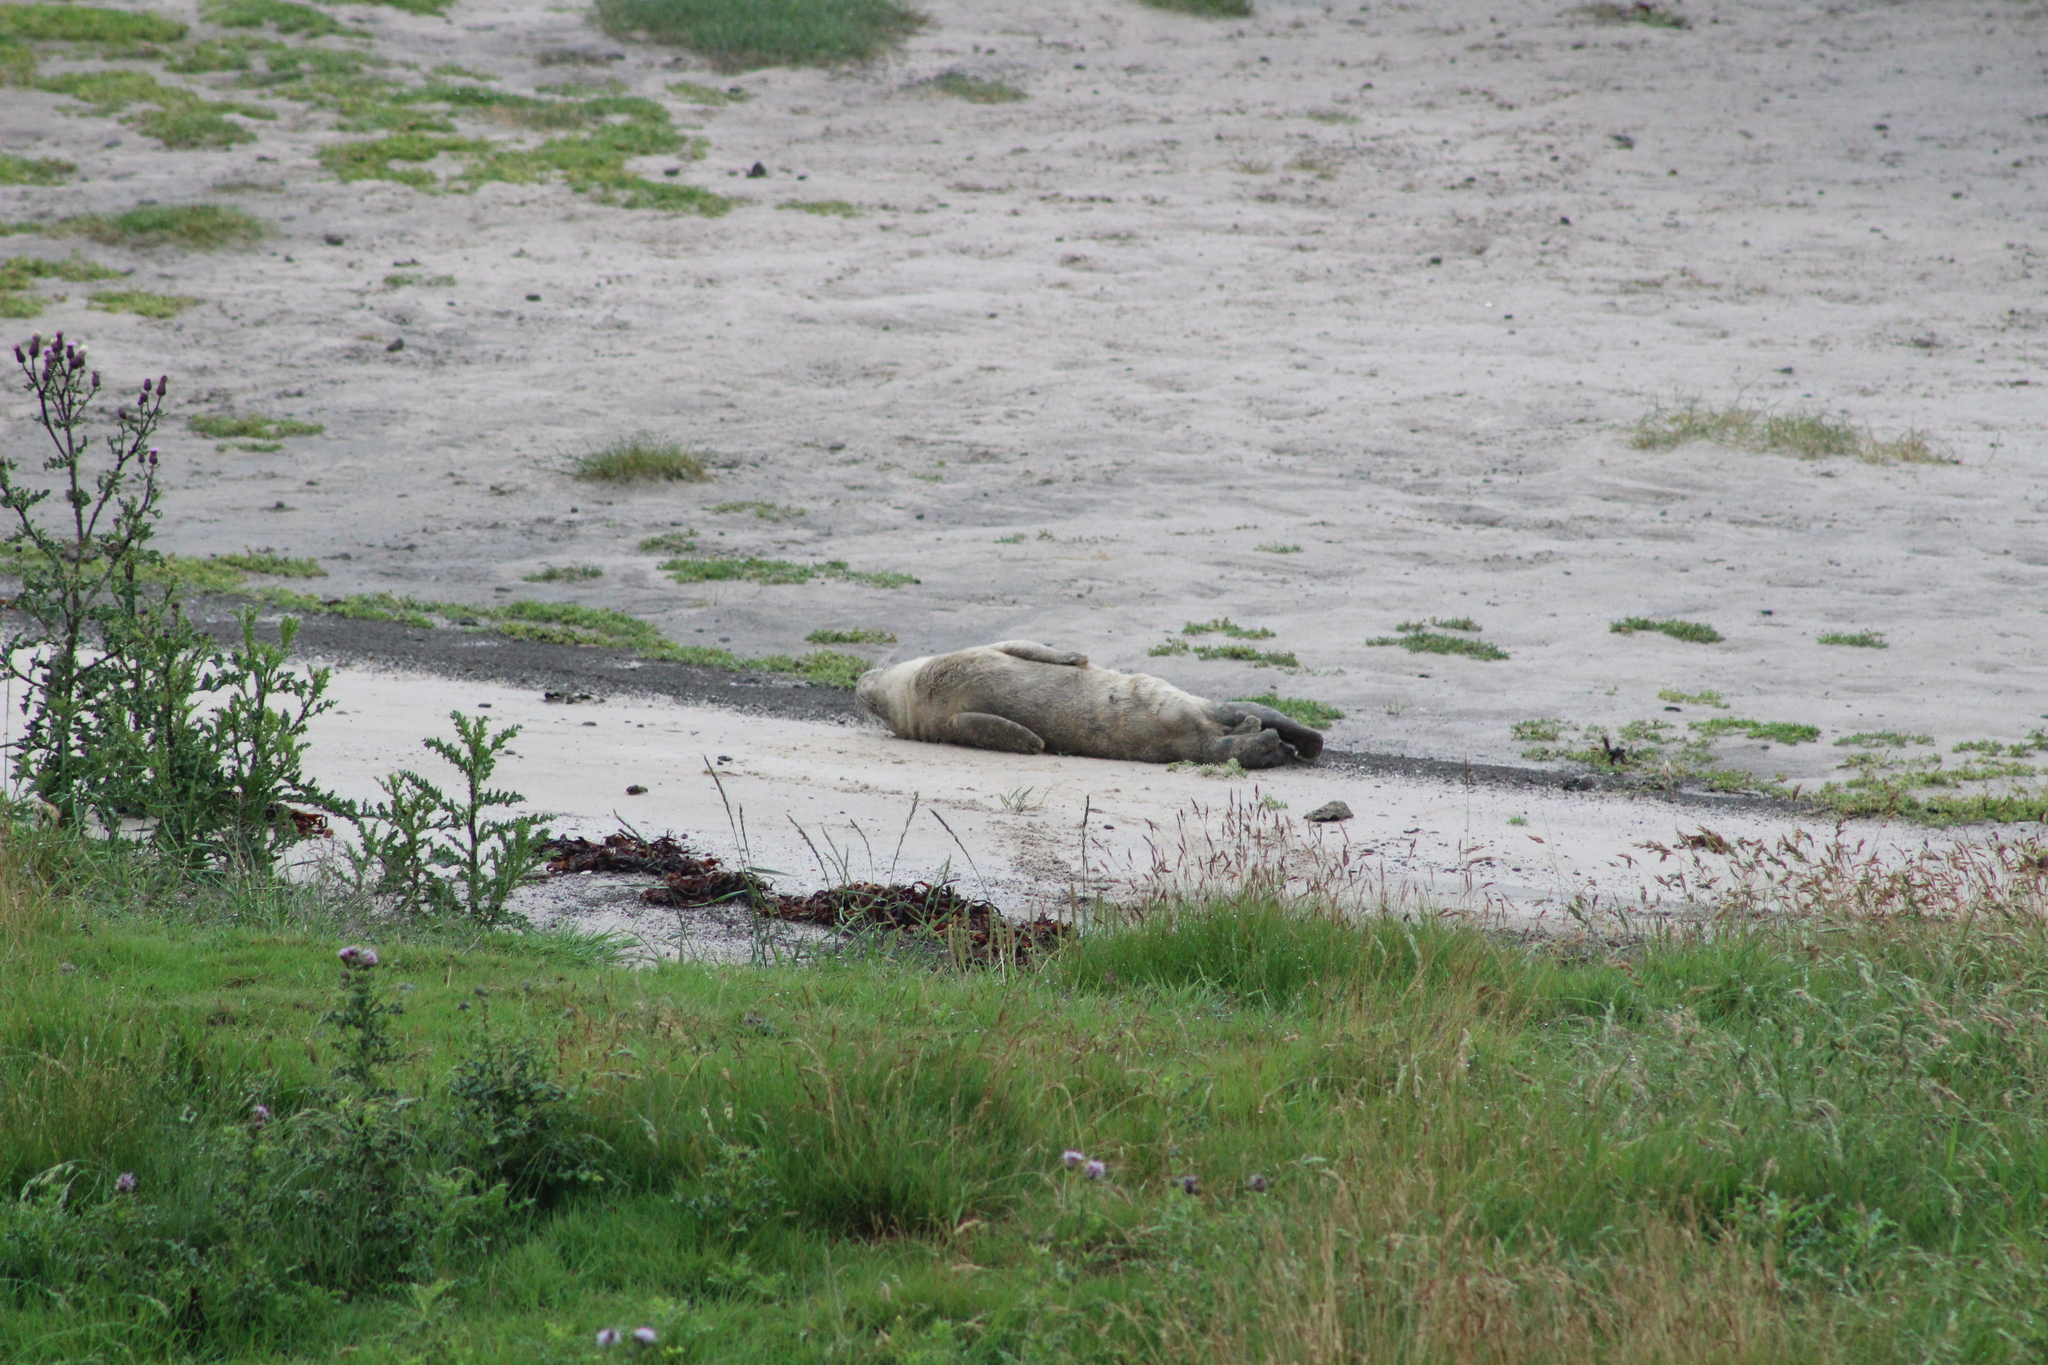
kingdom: Animalia
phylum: Chordata
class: Mammalia
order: Carnivora
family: Phocidae
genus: Phoca
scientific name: Phoca vitulina
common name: Harbor seal
